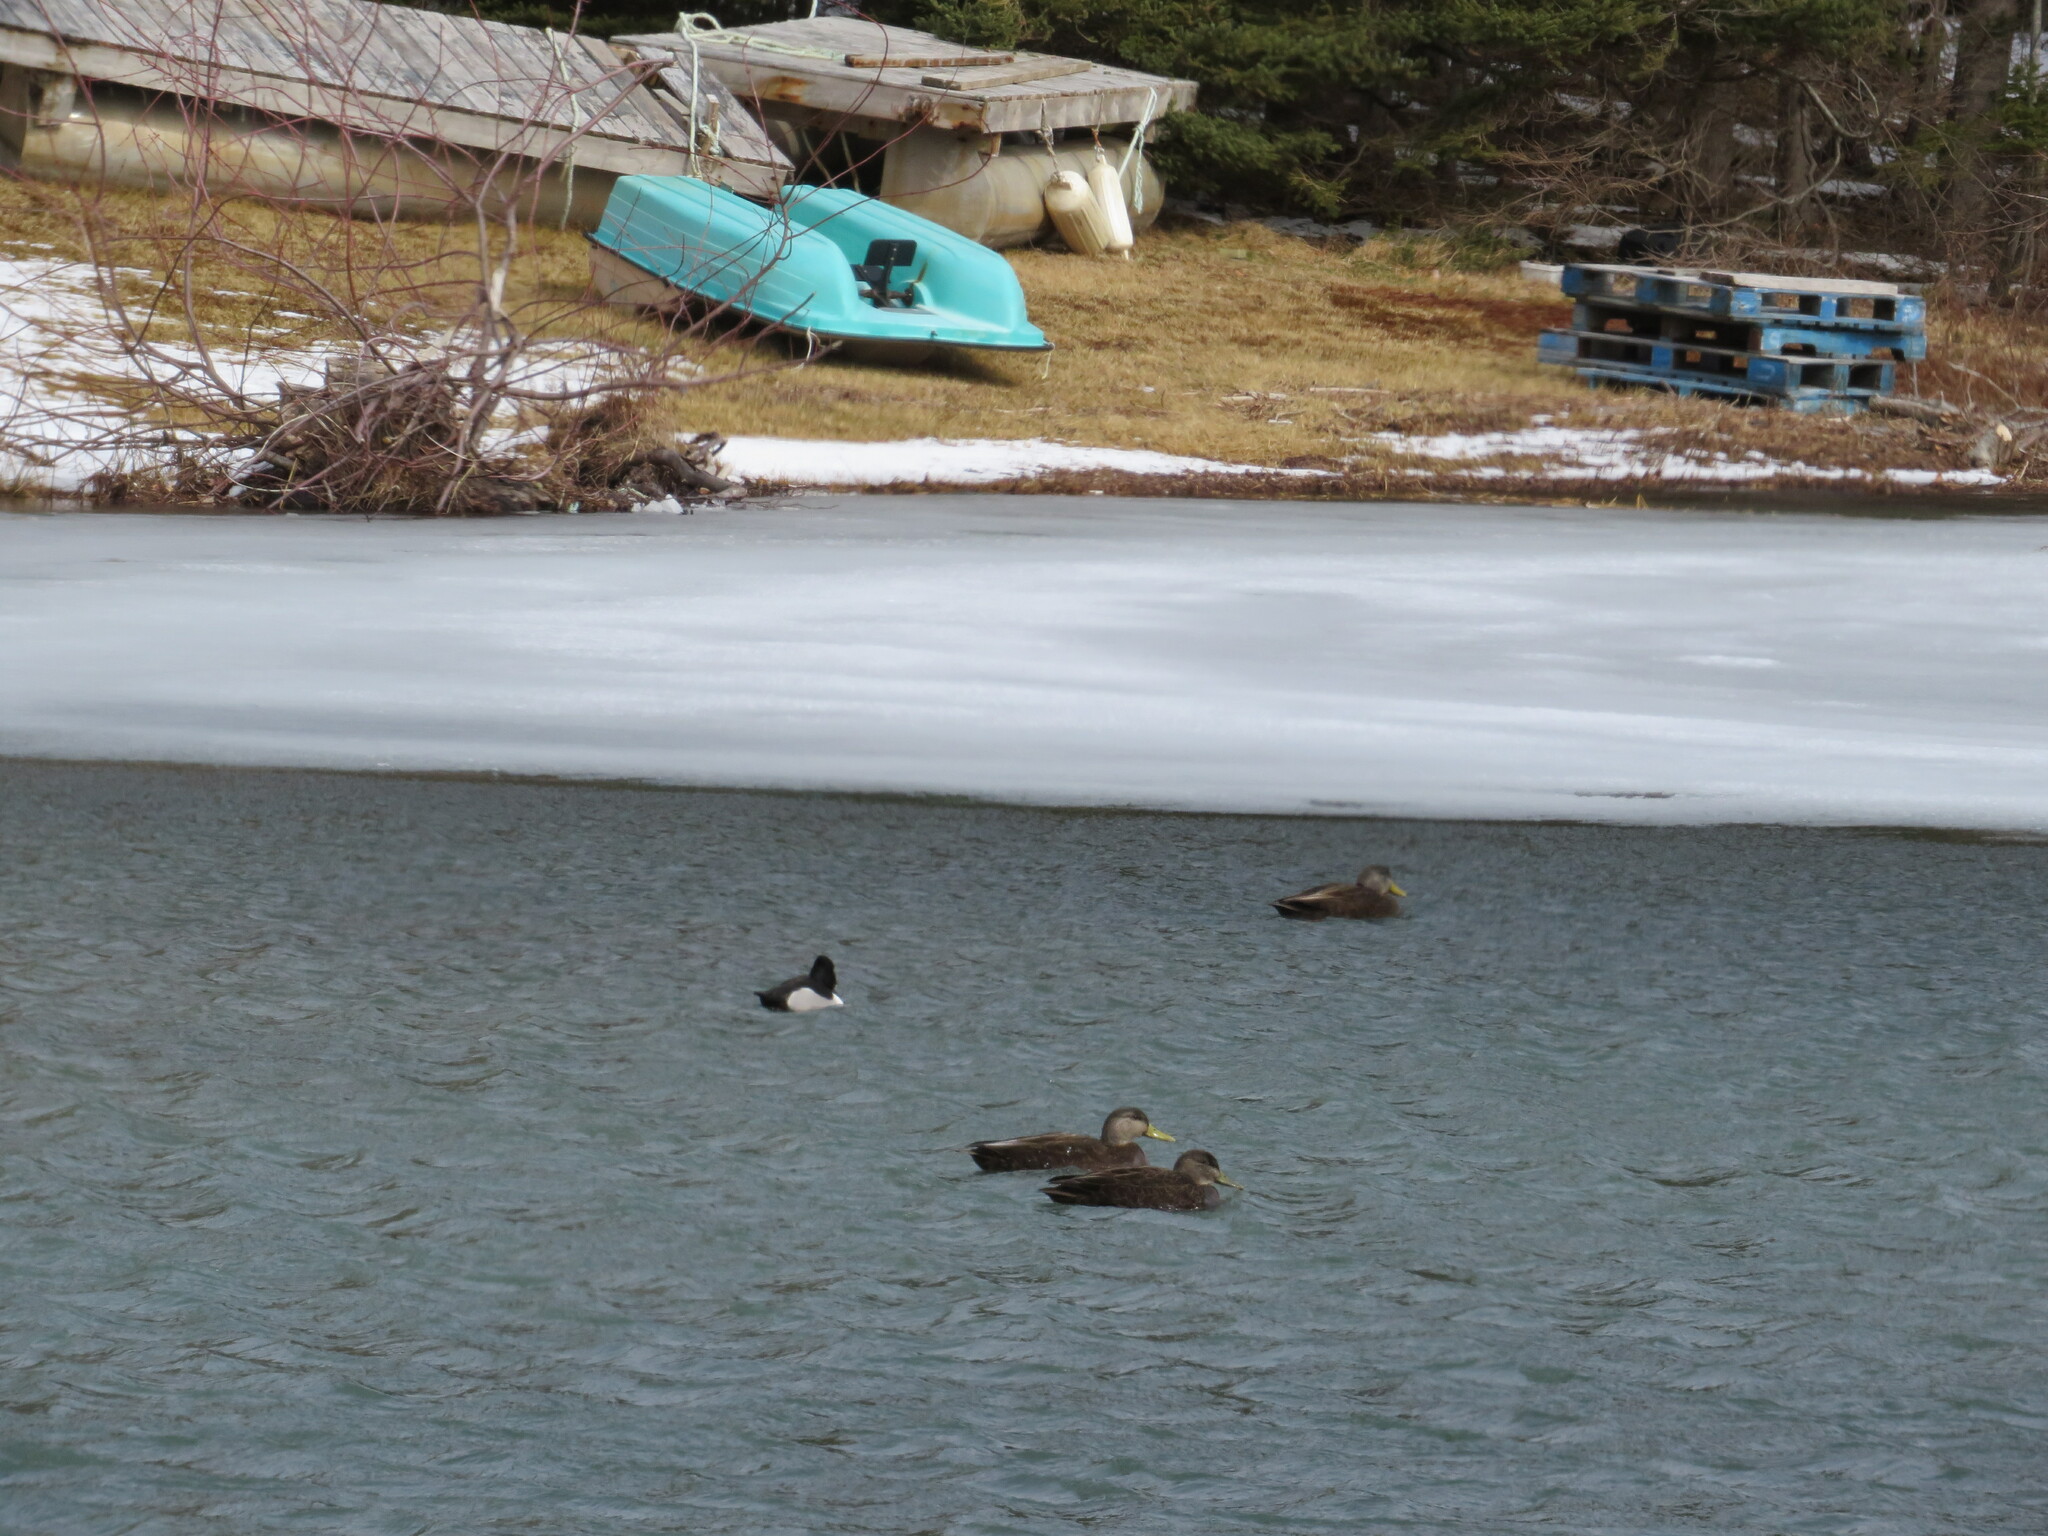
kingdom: Animalia
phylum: Chordata
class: Aves
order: Anseriformes
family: Anatidae
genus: Aythya
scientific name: Aythya collaris
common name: Ring-necked duck
